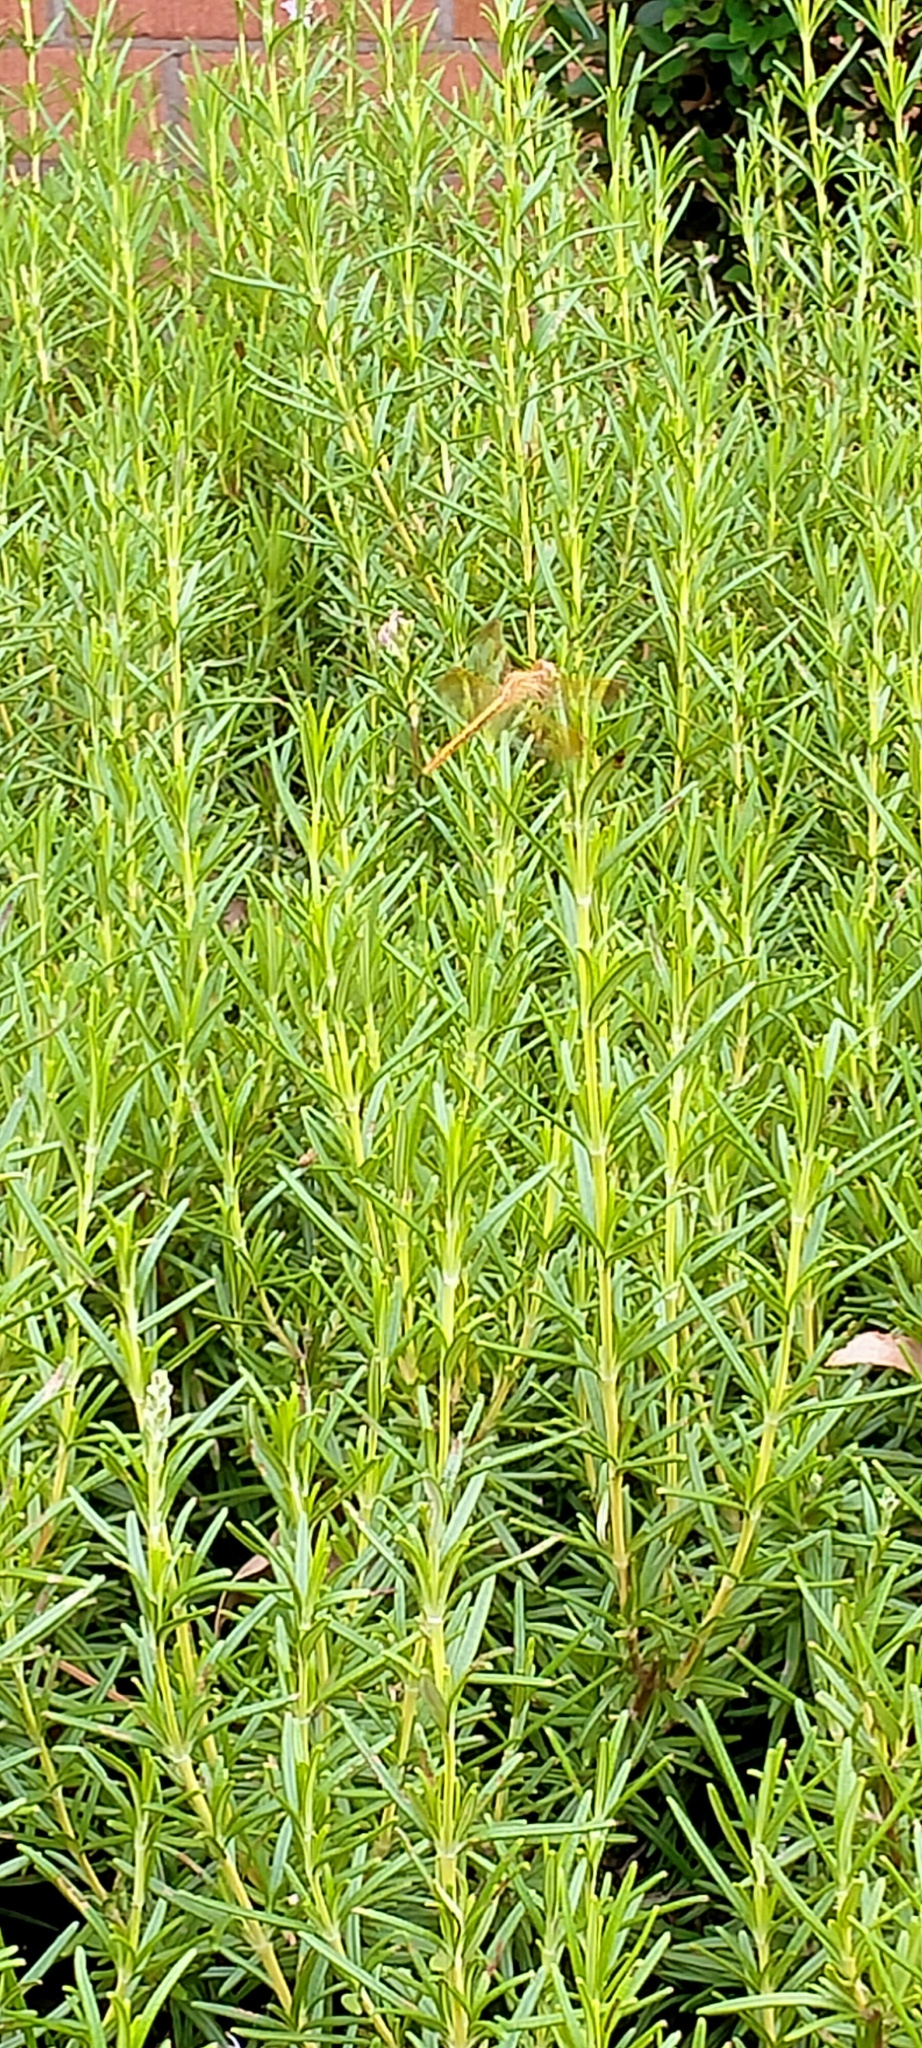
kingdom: Animalia
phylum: Arthropoda
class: Insecta
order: Odonata
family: Libellulidae
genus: Diplacodes
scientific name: Diplacodes haematodes
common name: Scarlet percher
